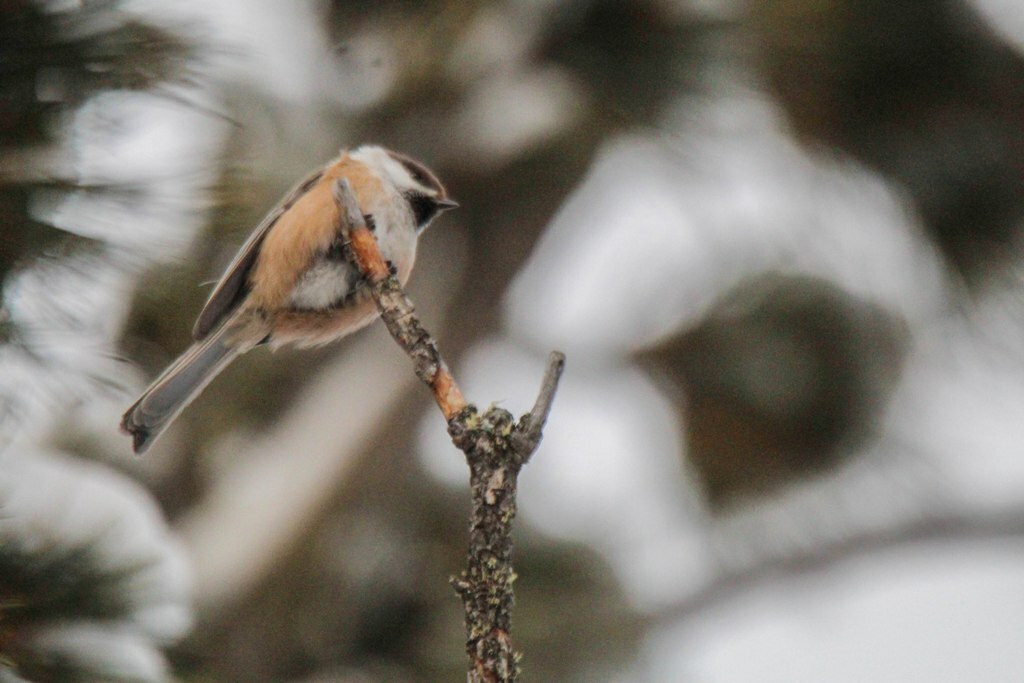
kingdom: Animalia
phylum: Chordata
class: Aves
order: Passeriformes
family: Paridae
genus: Poecile
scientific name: Poecile cinctus
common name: Gray-headed chickadee
